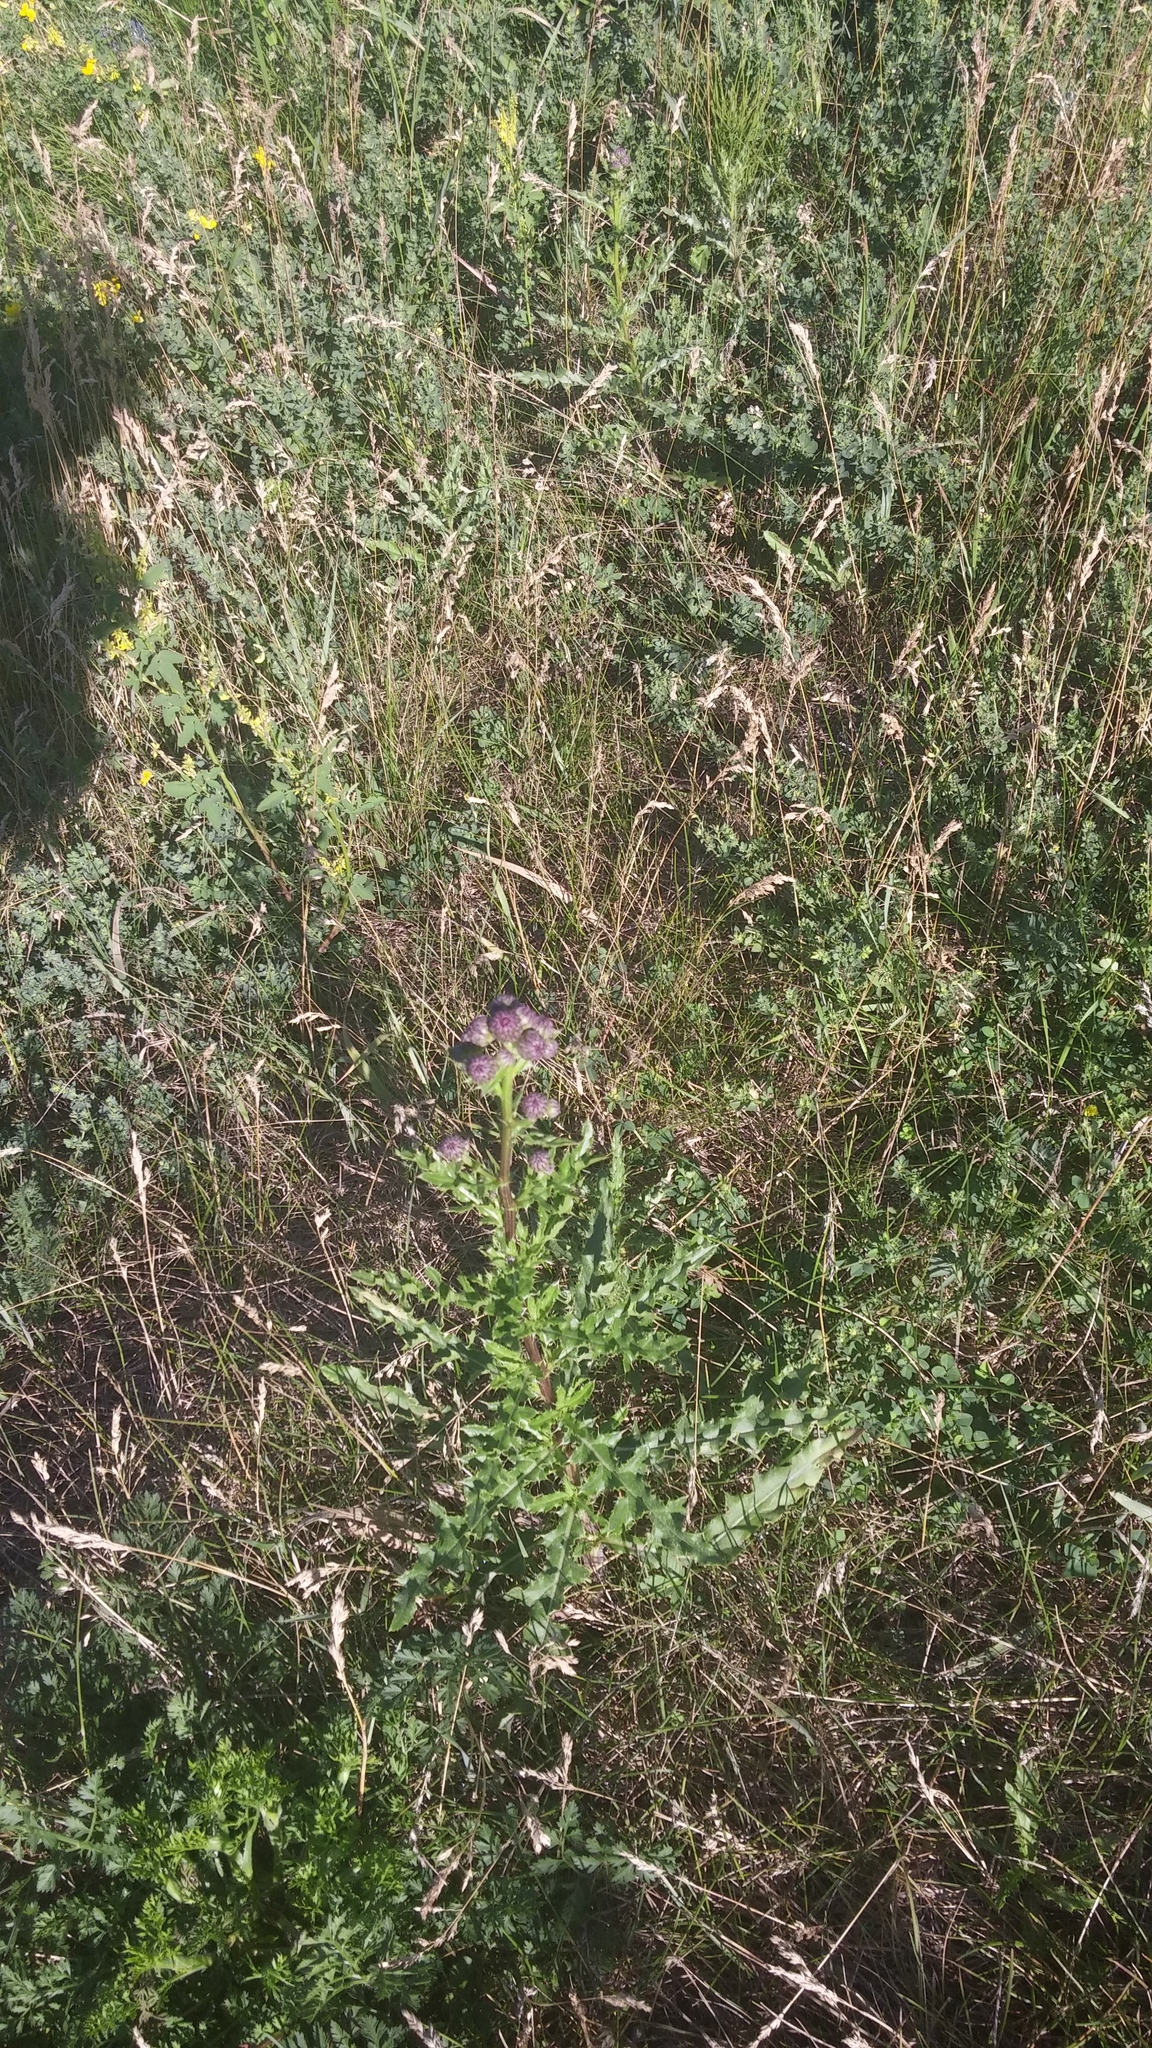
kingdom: Plantae
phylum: Tracheophyta
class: Magnoliopsida
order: Asterales
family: Asteraceae
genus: Cirsium
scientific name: Cirsium arvense
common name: Creeping thistle
